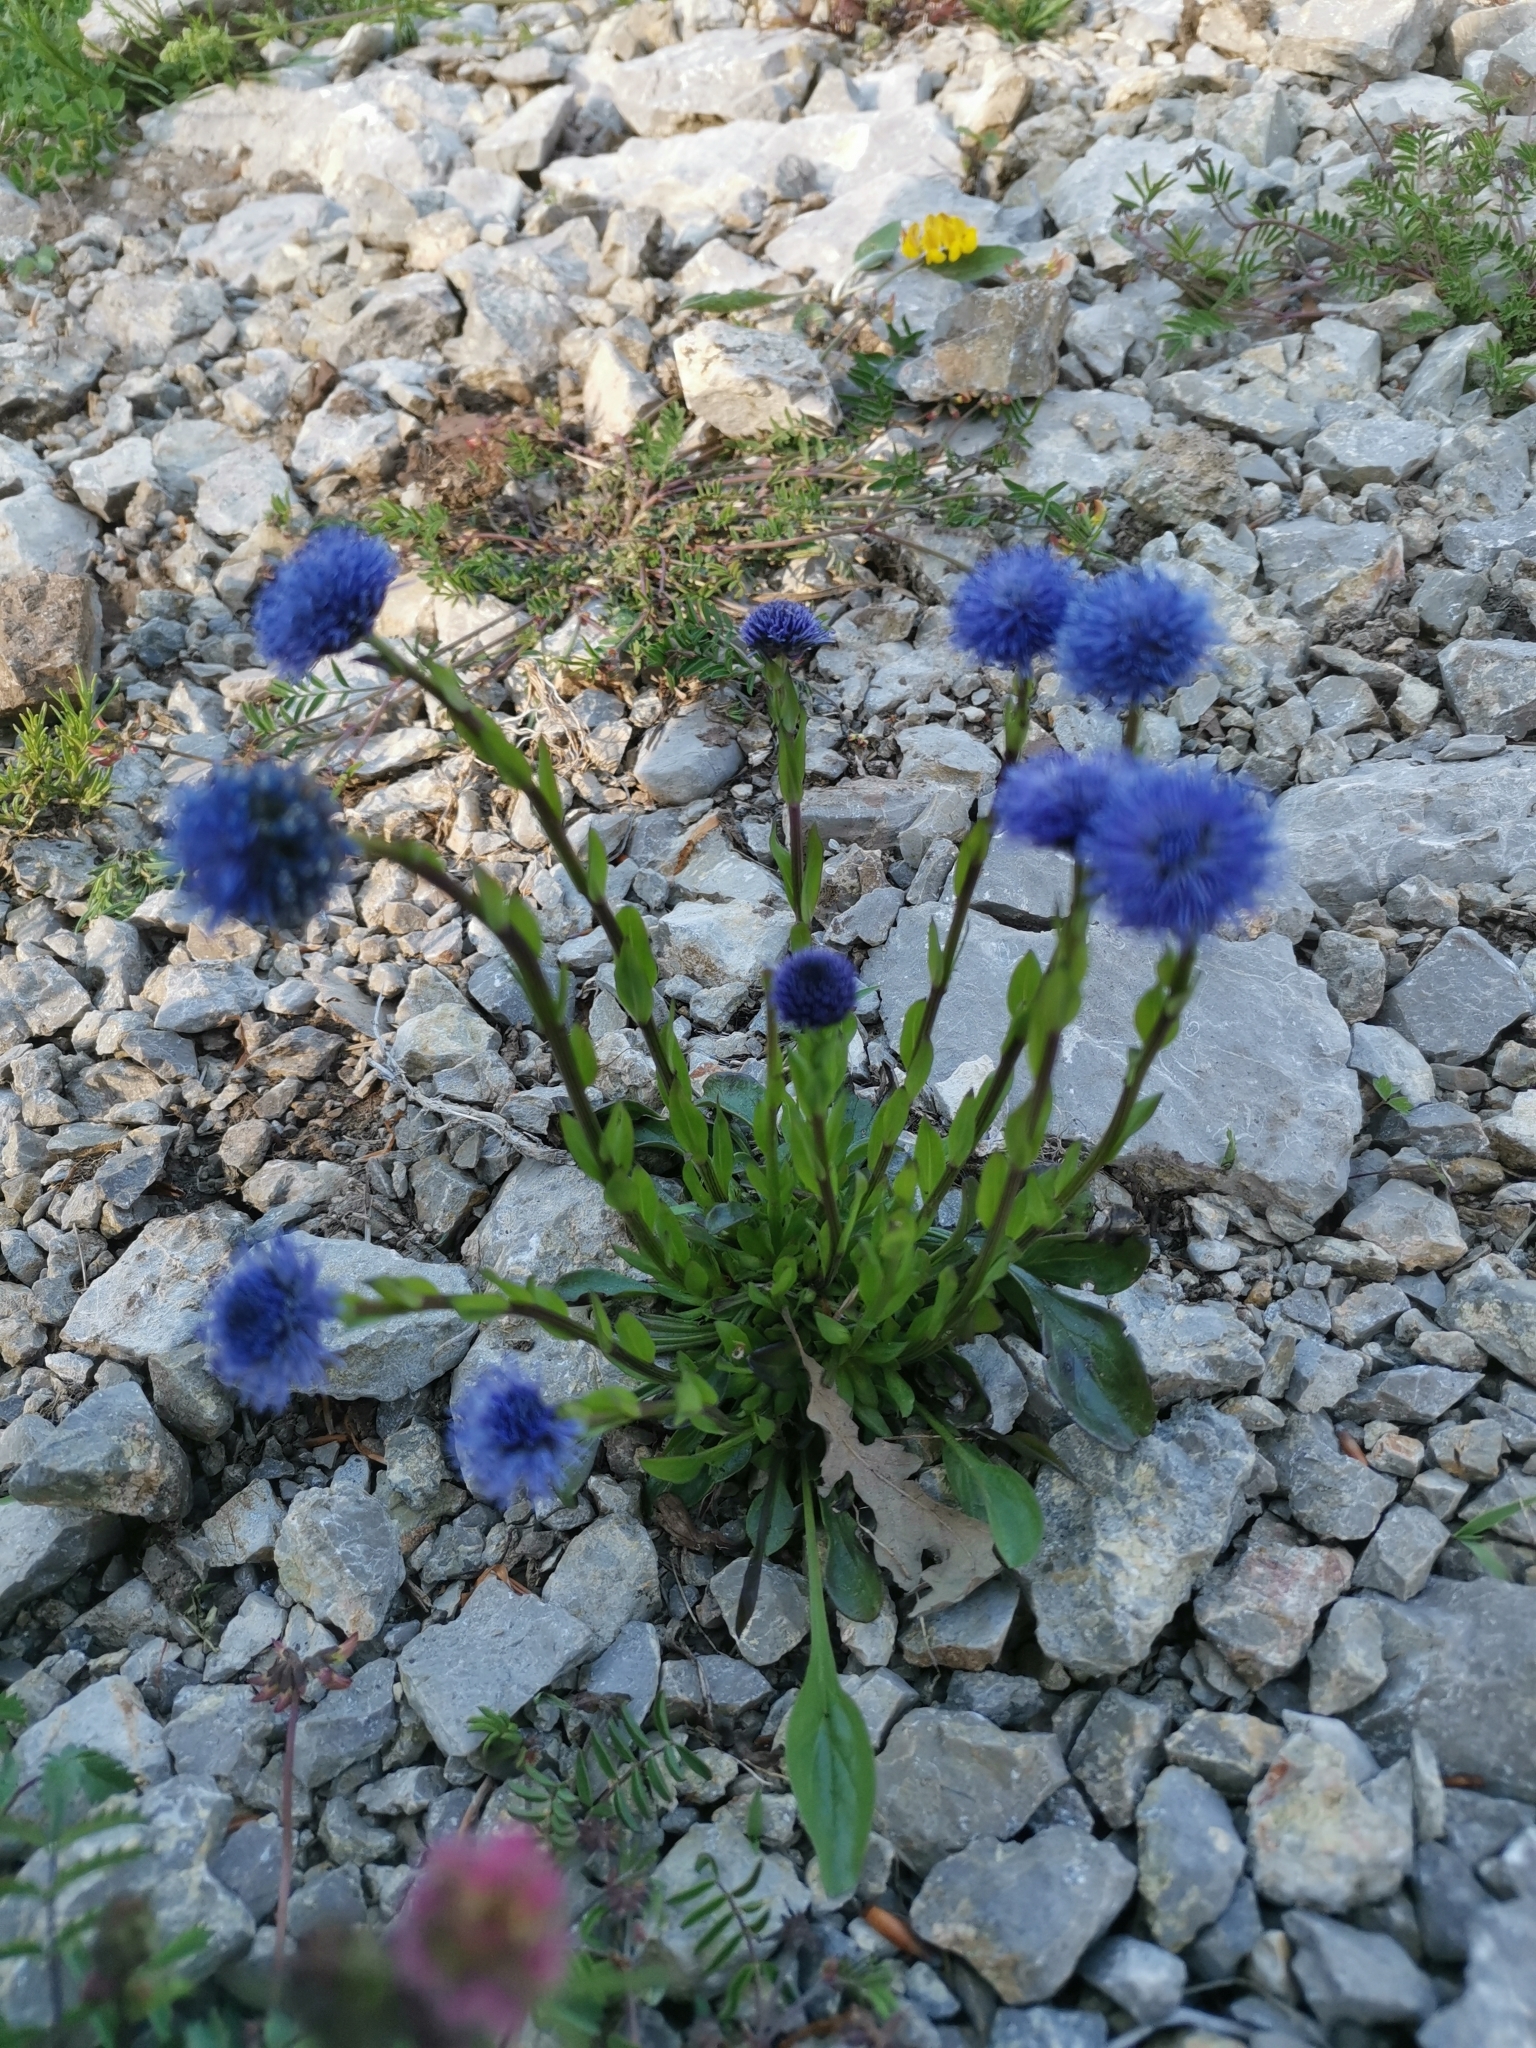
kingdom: Plantae
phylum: Tracheophyta
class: Magnoliopsida
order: Lamiales
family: Plantaginaceae
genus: Globularia
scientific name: Globularia bisnagarica
